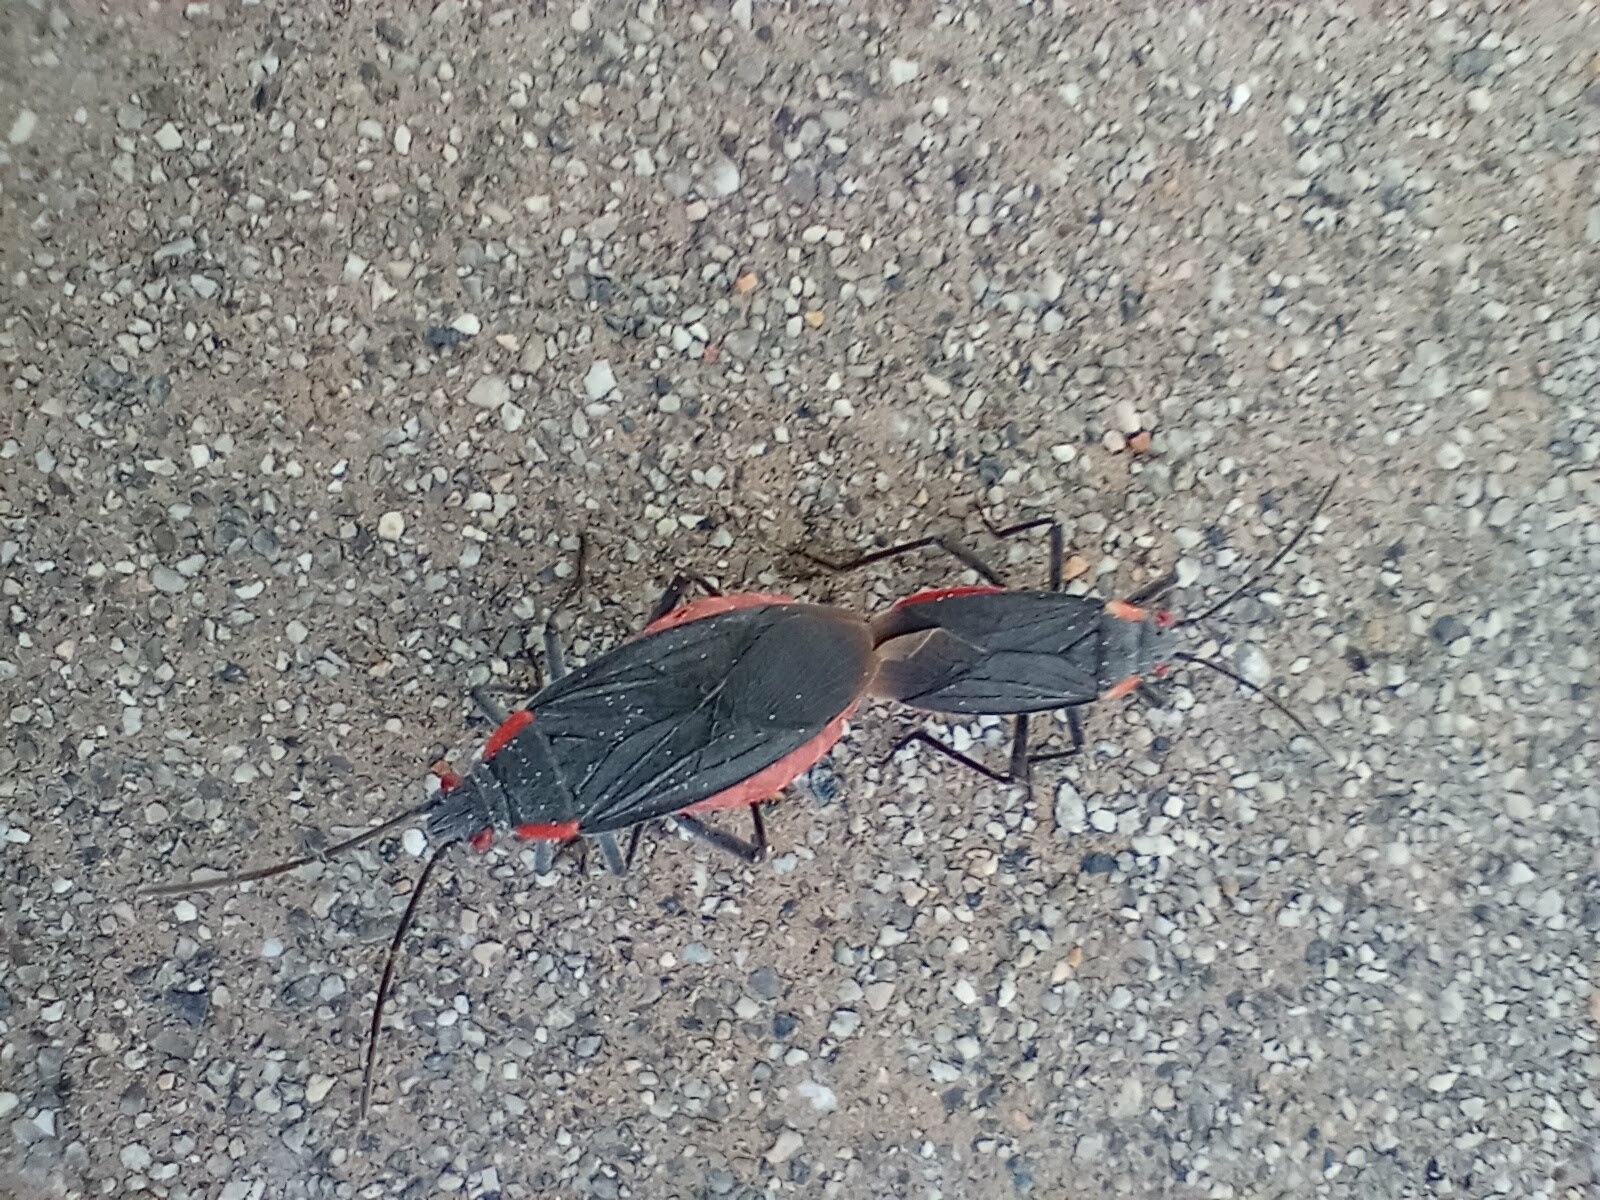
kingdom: Animalia
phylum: Arthropoda
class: Insecta
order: Hemiptera
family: Rhopalidae
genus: Jadera
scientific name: Jadera haematoloma
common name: Red-shouldered bug
